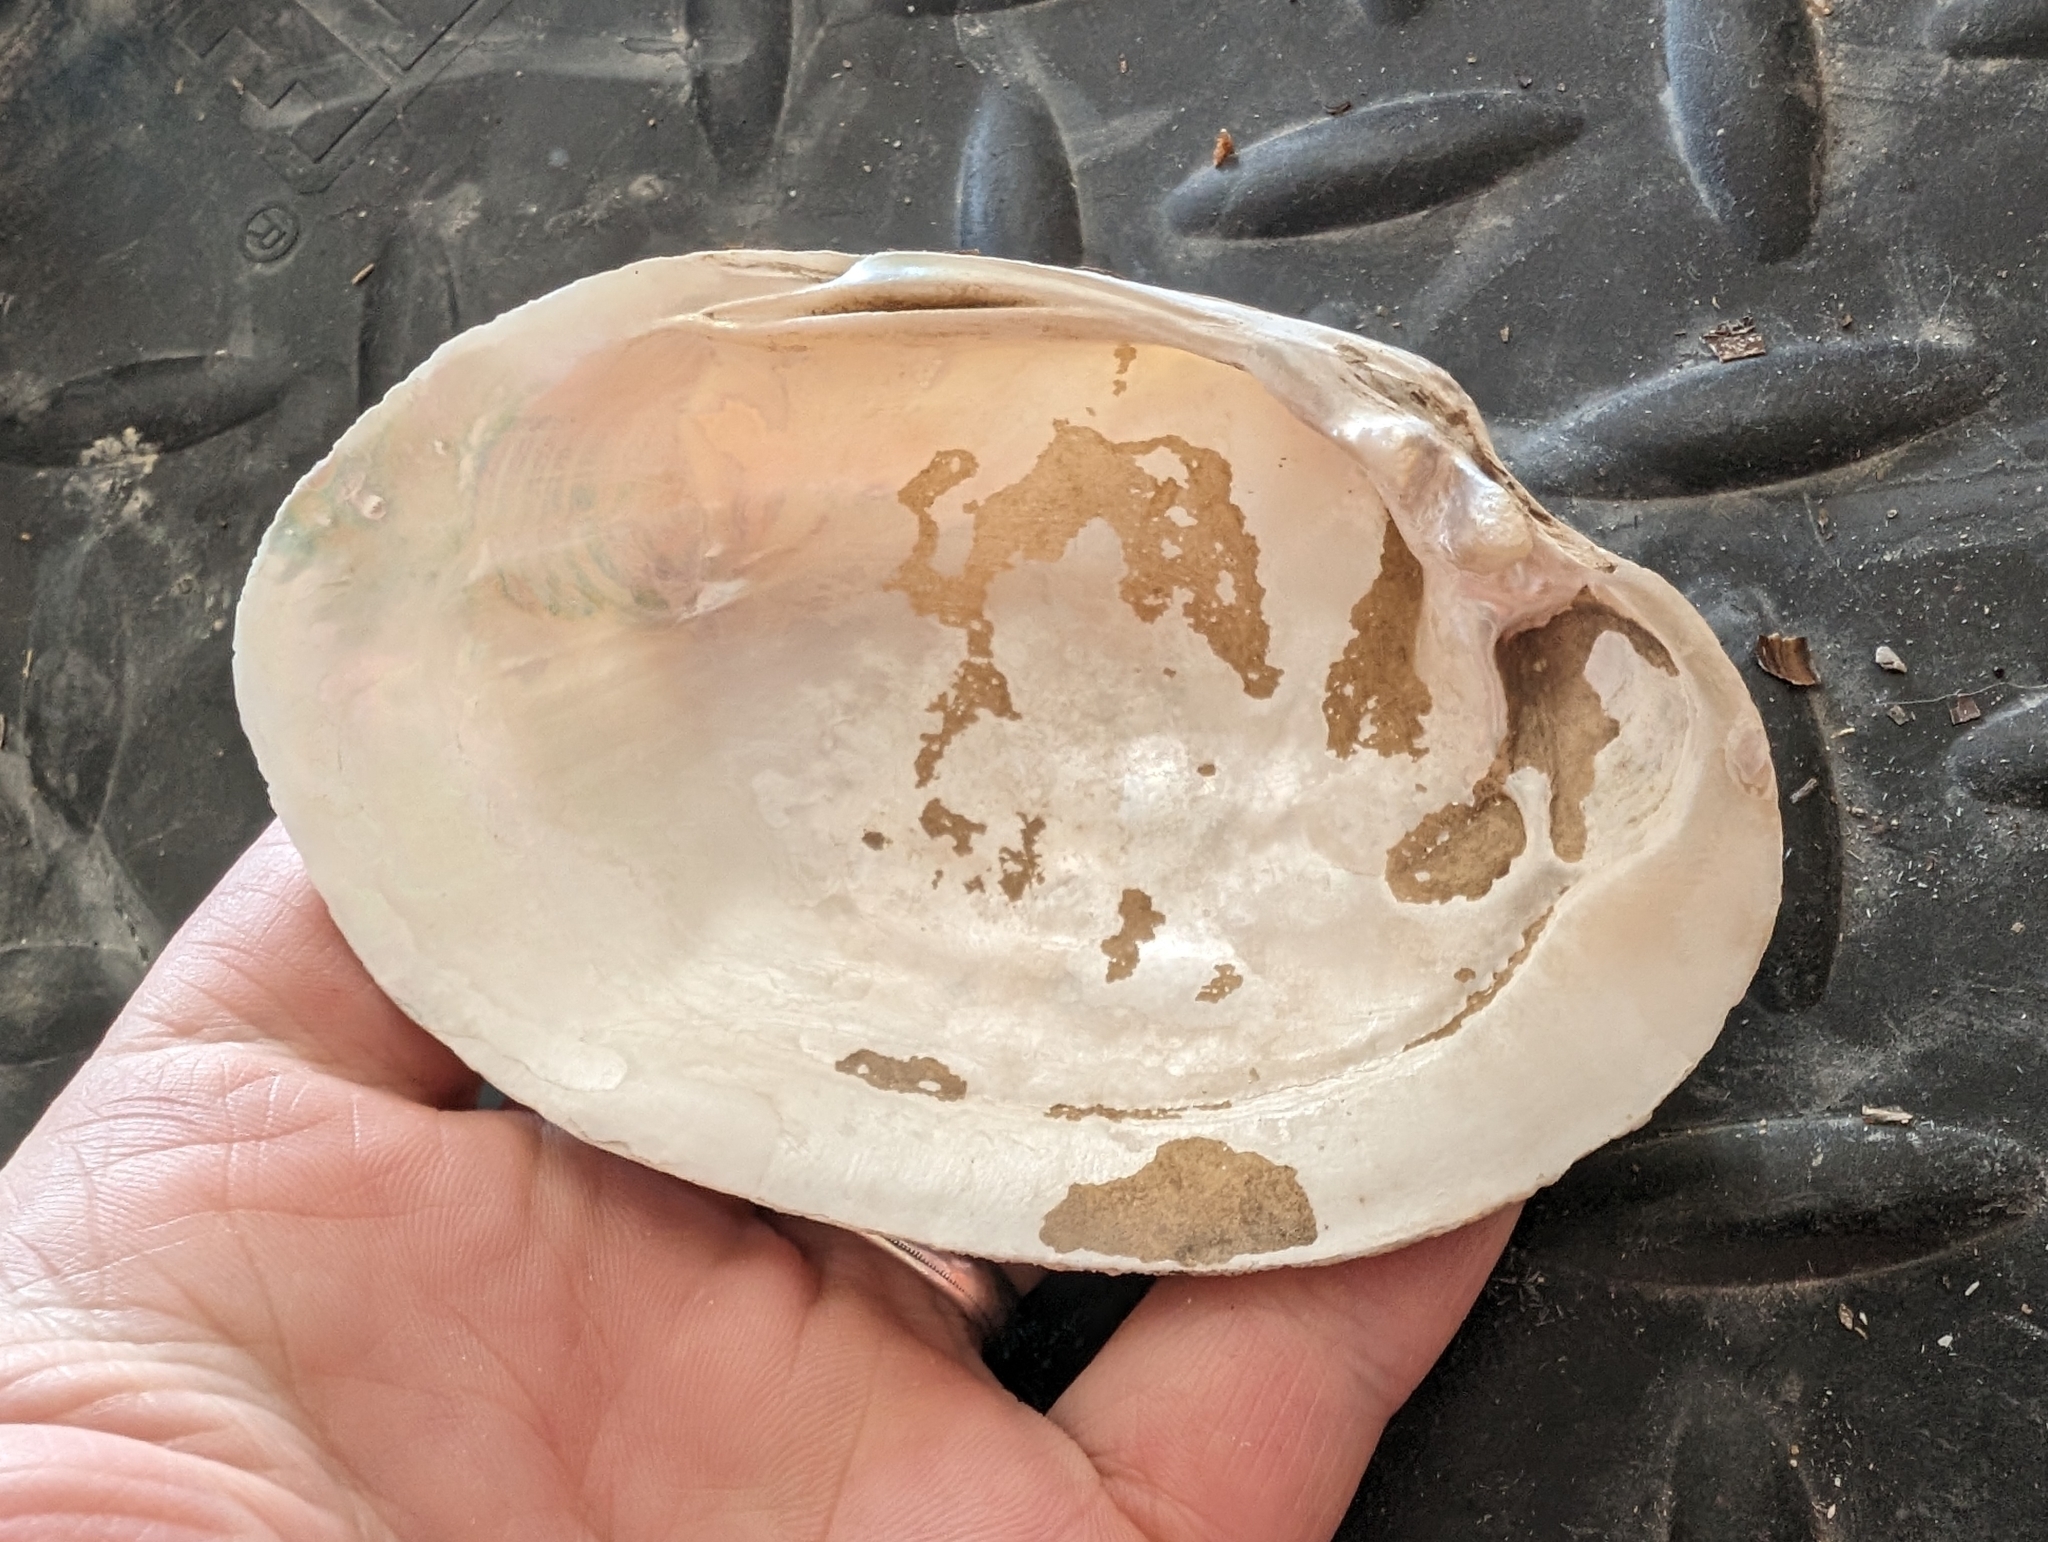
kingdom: Animalia
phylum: Mollusca
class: Bivalvia
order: Unionida
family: Unionidae
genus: Lampsilis
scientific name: Lampsilis cardium
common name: Plain pocketbook
